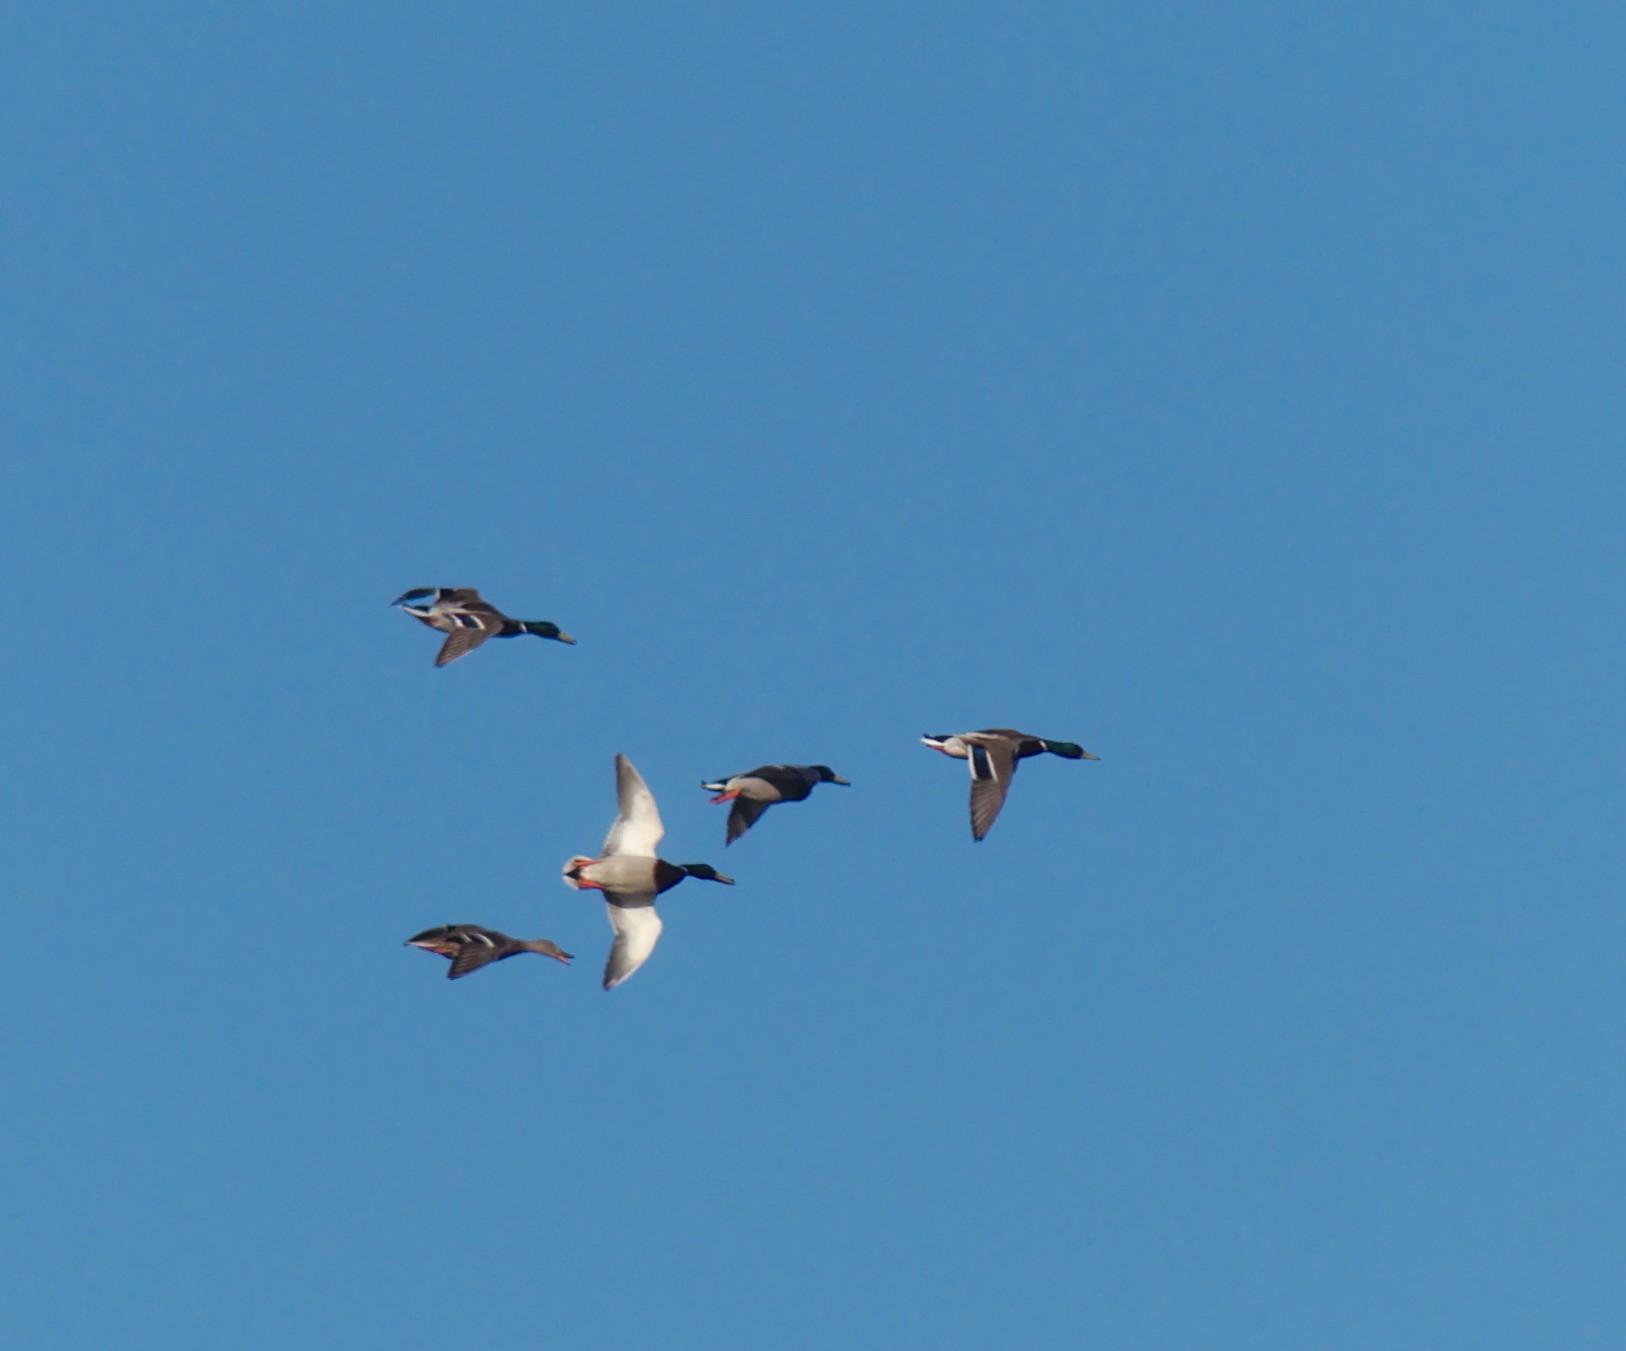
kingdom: Animalia
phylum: Chordata
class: Aves
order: Anseriformes
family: Anatidae
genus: Anas
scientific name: Anas platyrhynchos
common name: Mallard
